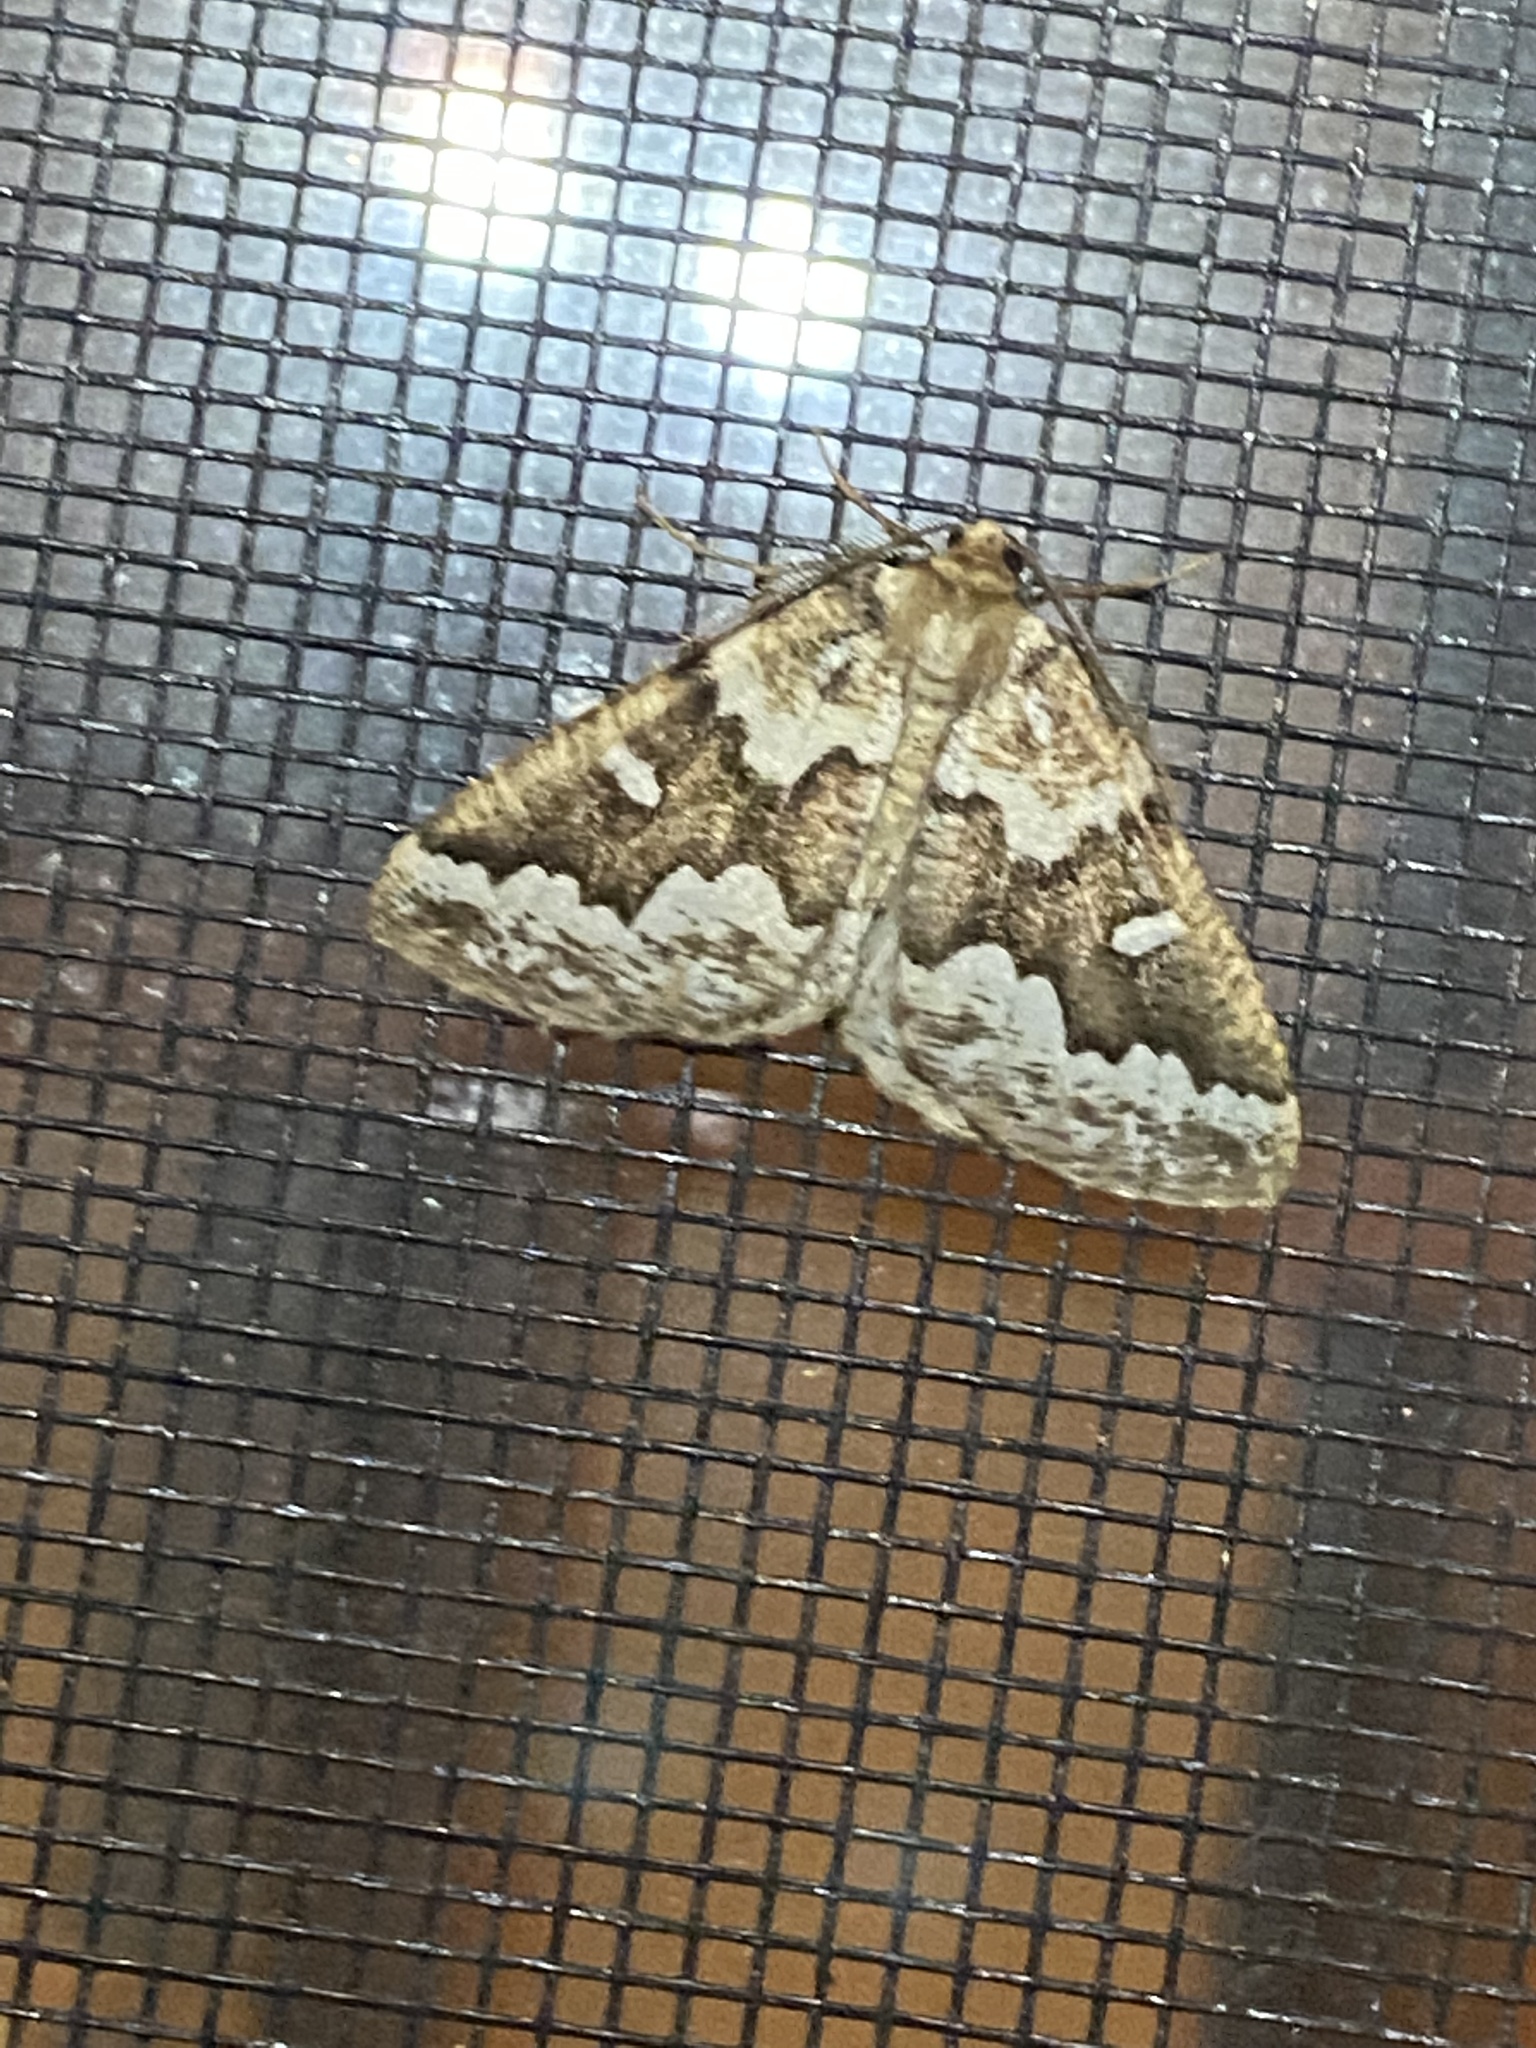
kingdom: Animalia
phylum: Arthropoda
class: Insecta
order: Lepidoptera
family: Geometridae
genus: Caripeta
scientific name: Caripeta divisata
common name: Gray spruce looper
